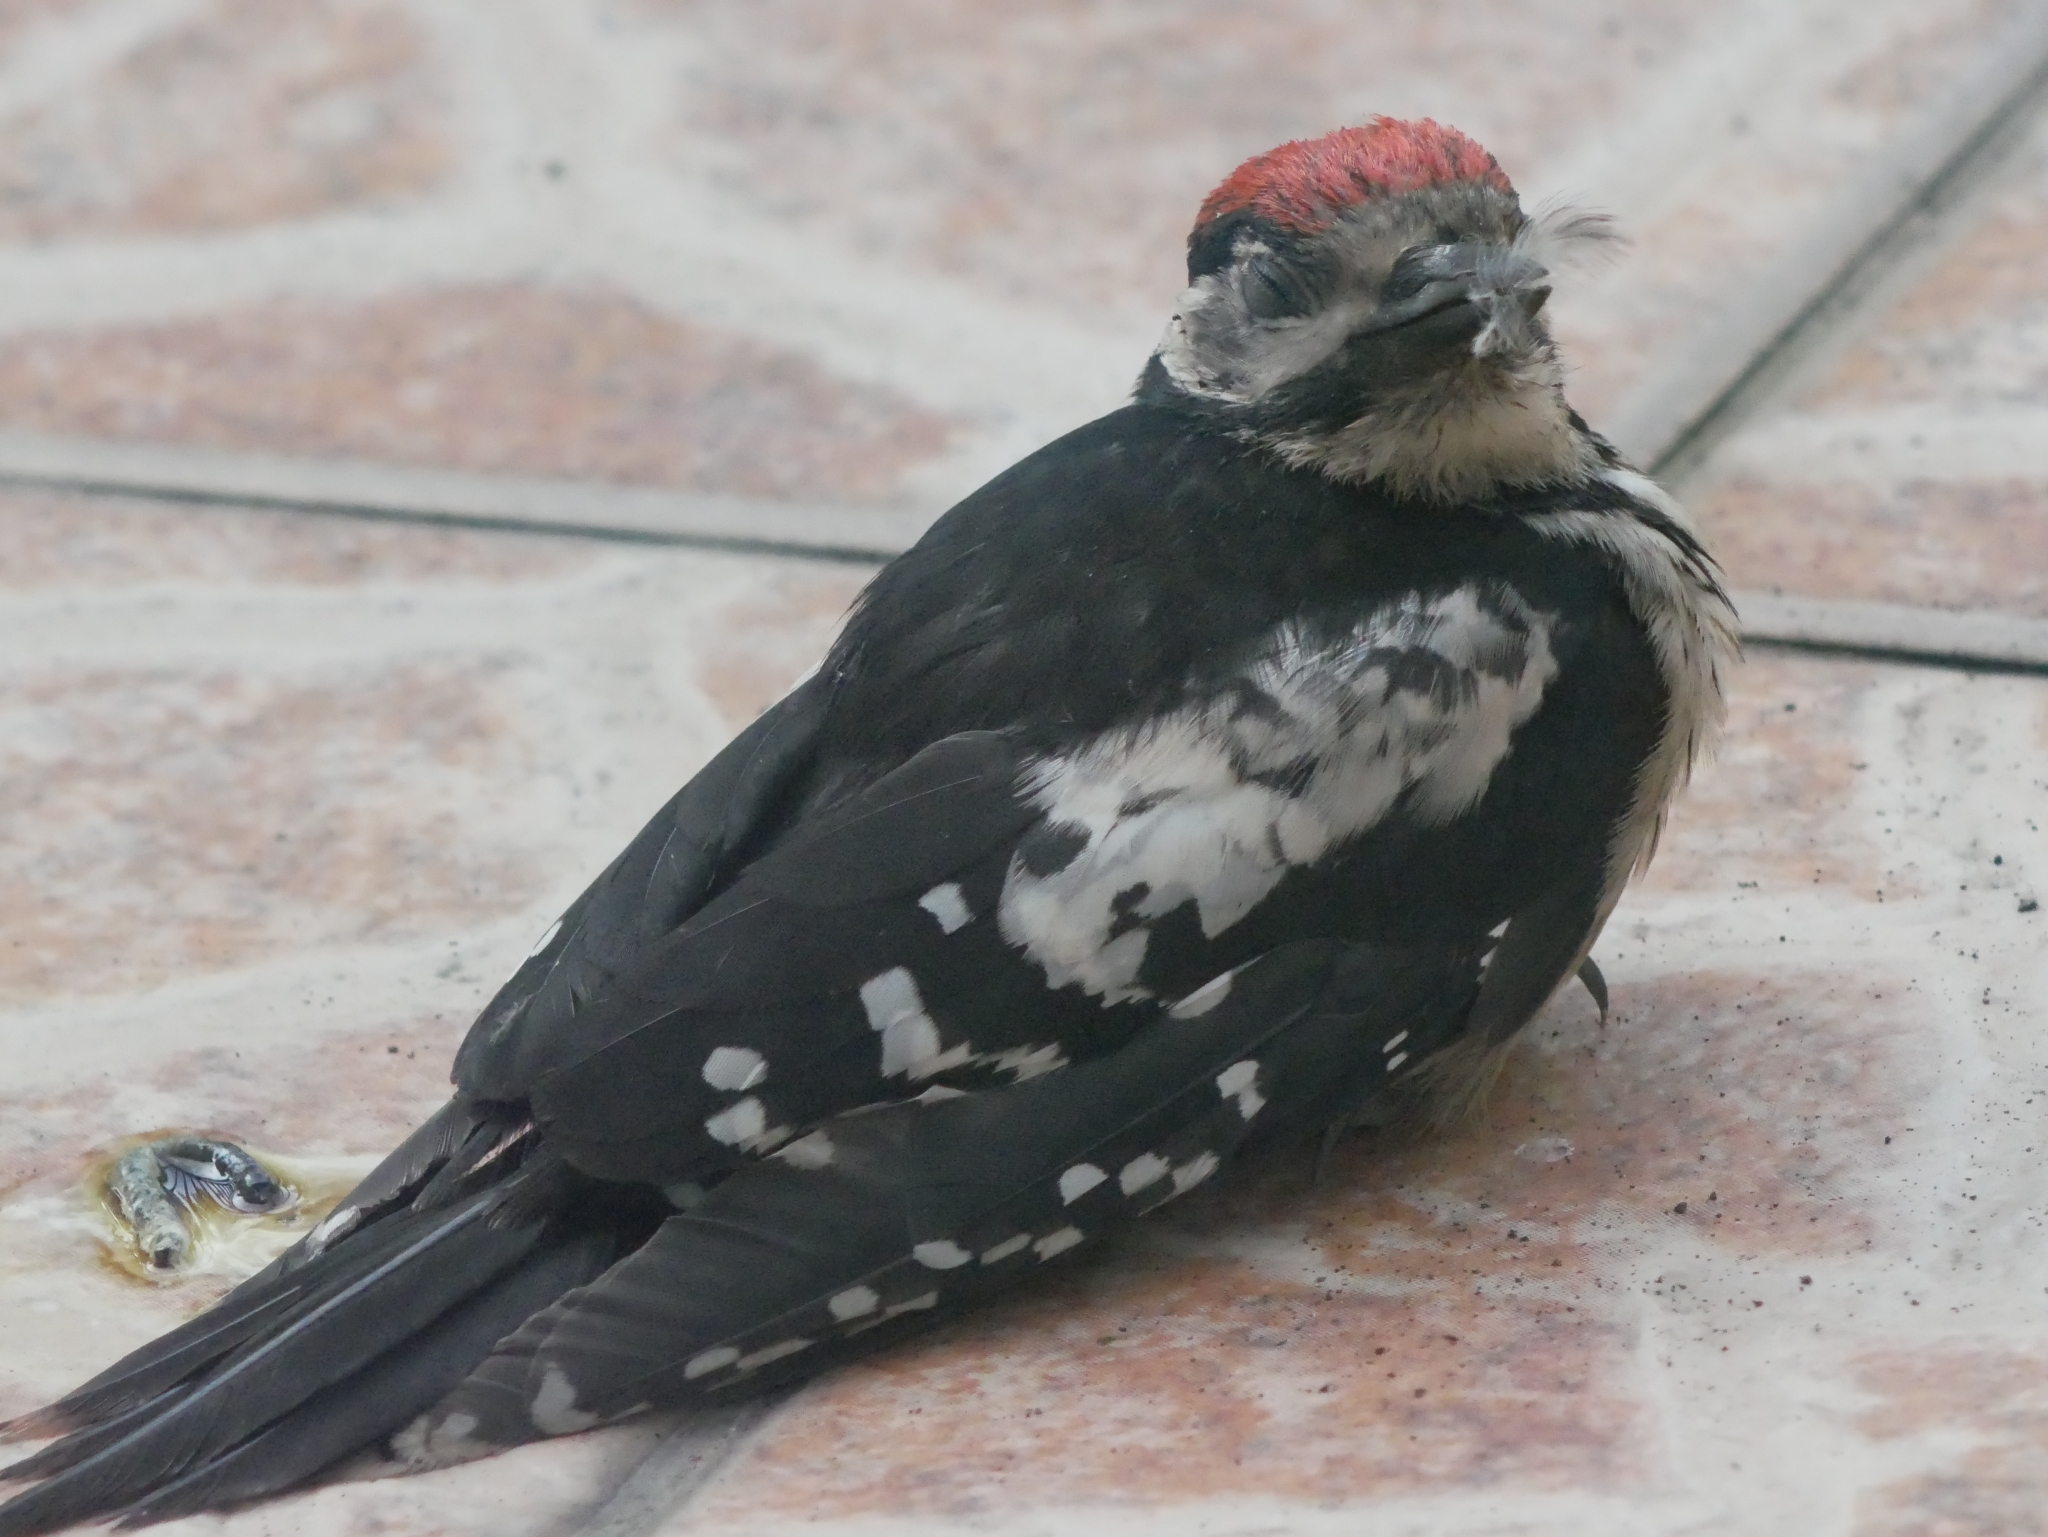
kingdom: Animalia
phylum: Chordata
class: Aves
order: Piciformes
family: Picidae
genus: Dendrocopos
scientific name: Dendrocopos major
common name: Great spotted woodpecker
